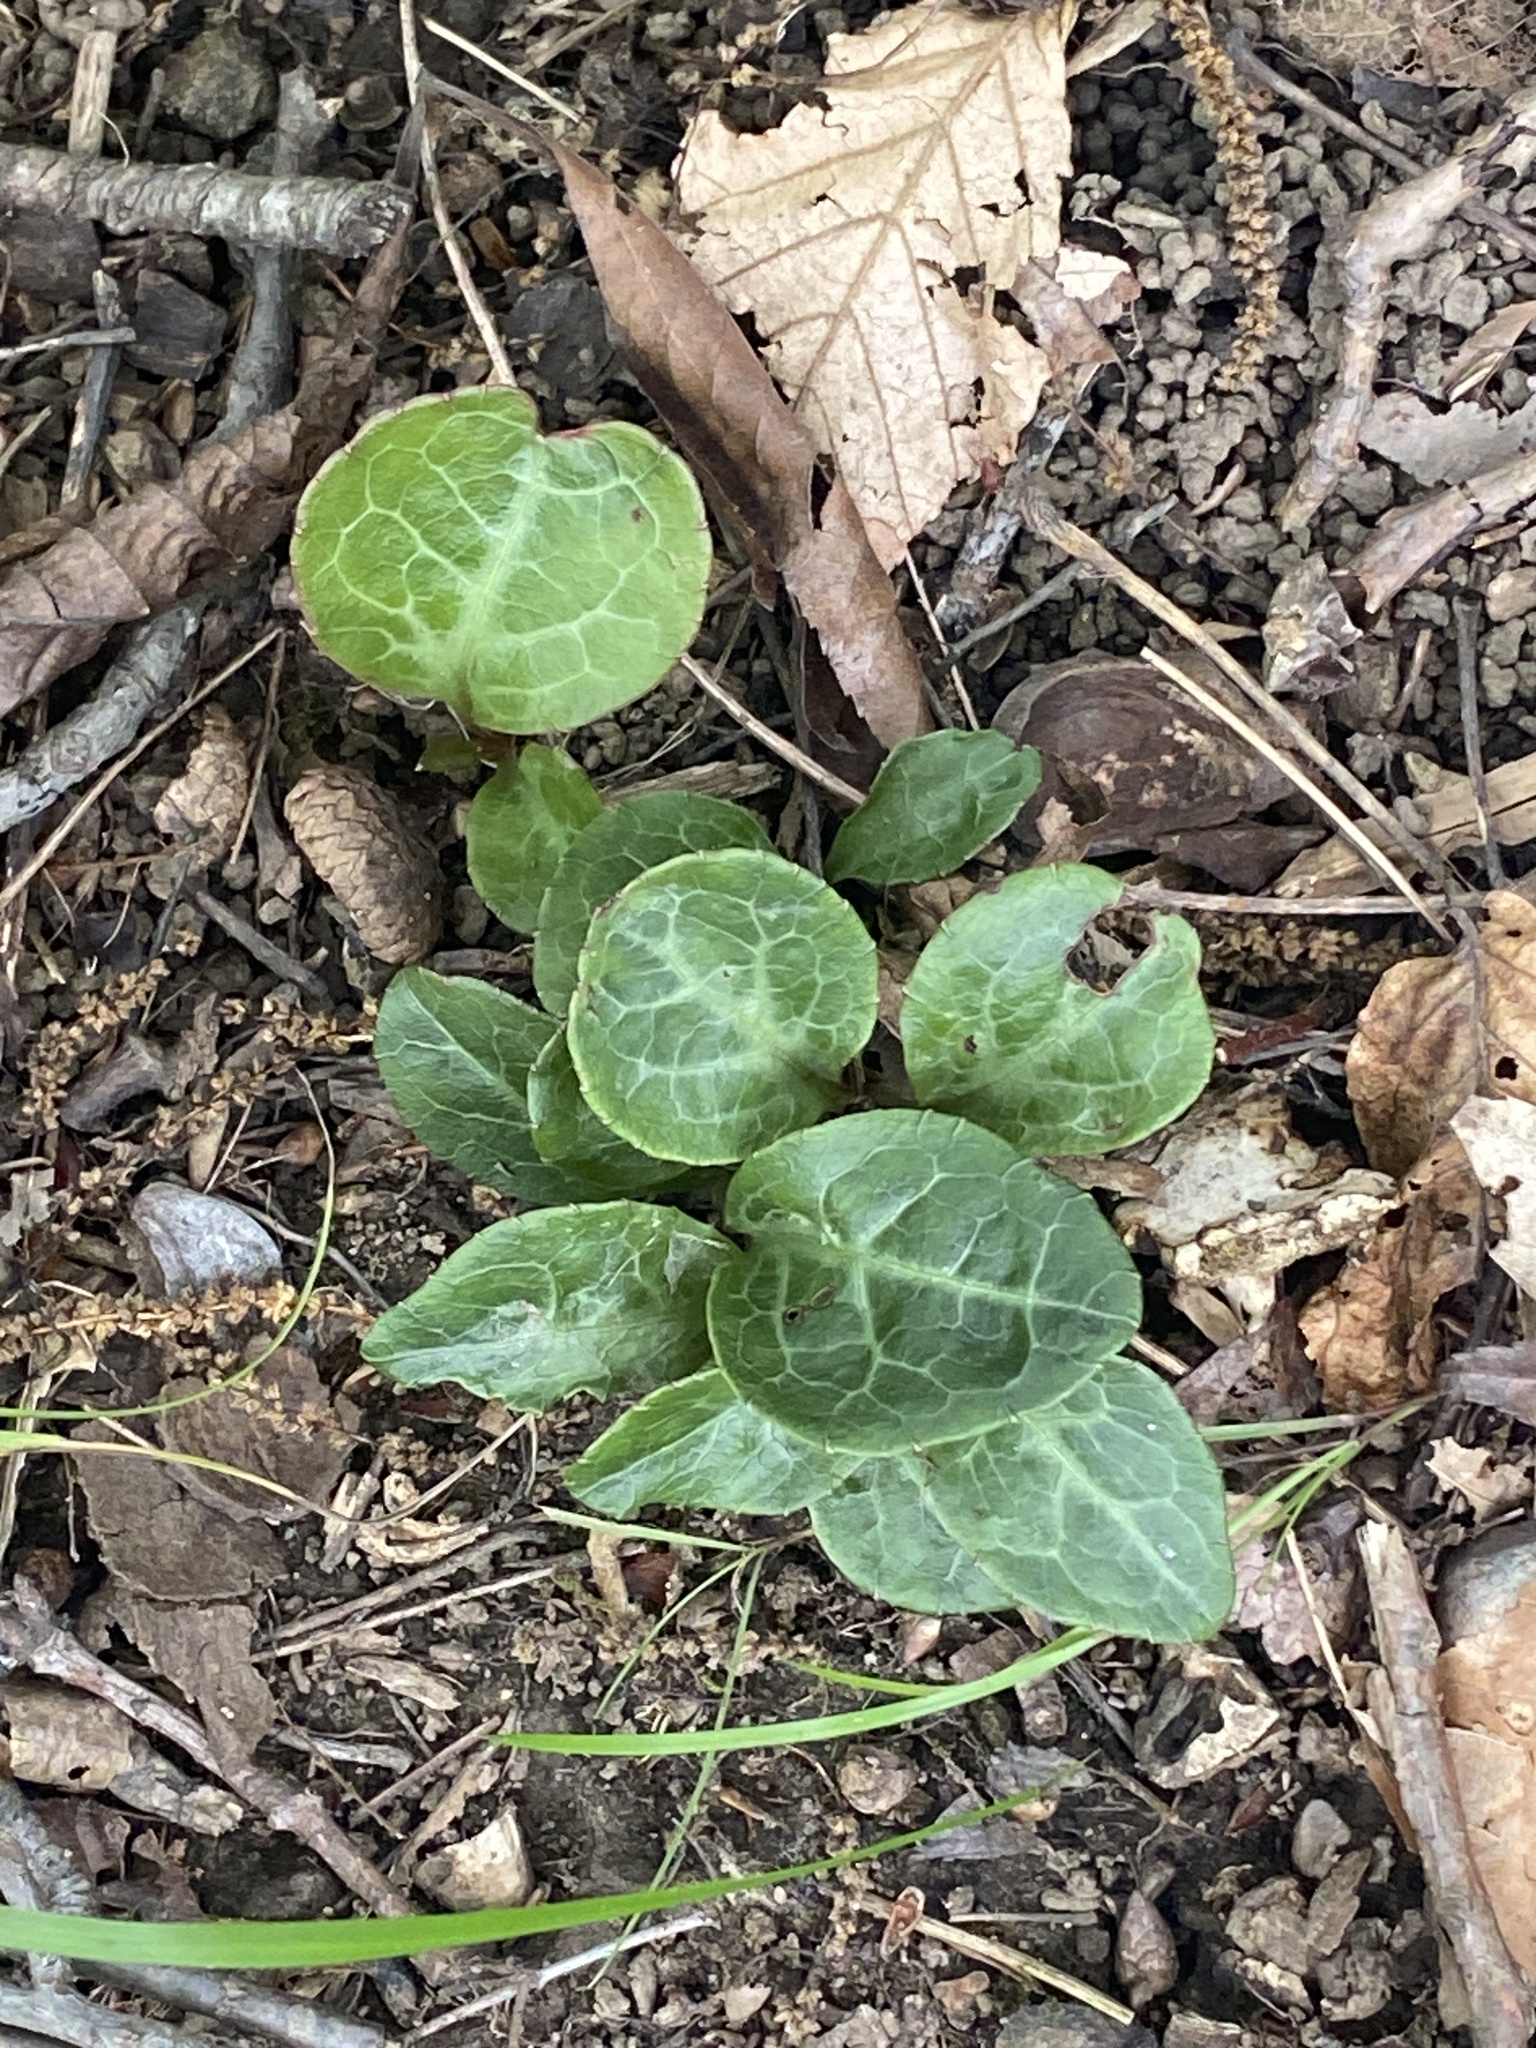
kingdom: Plantae
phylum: Tracheophyta
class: Magnoliopsida
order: Ericales
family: Ericaceae
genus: Pyrola
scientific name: Pyrola americana
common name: American wintergreen
